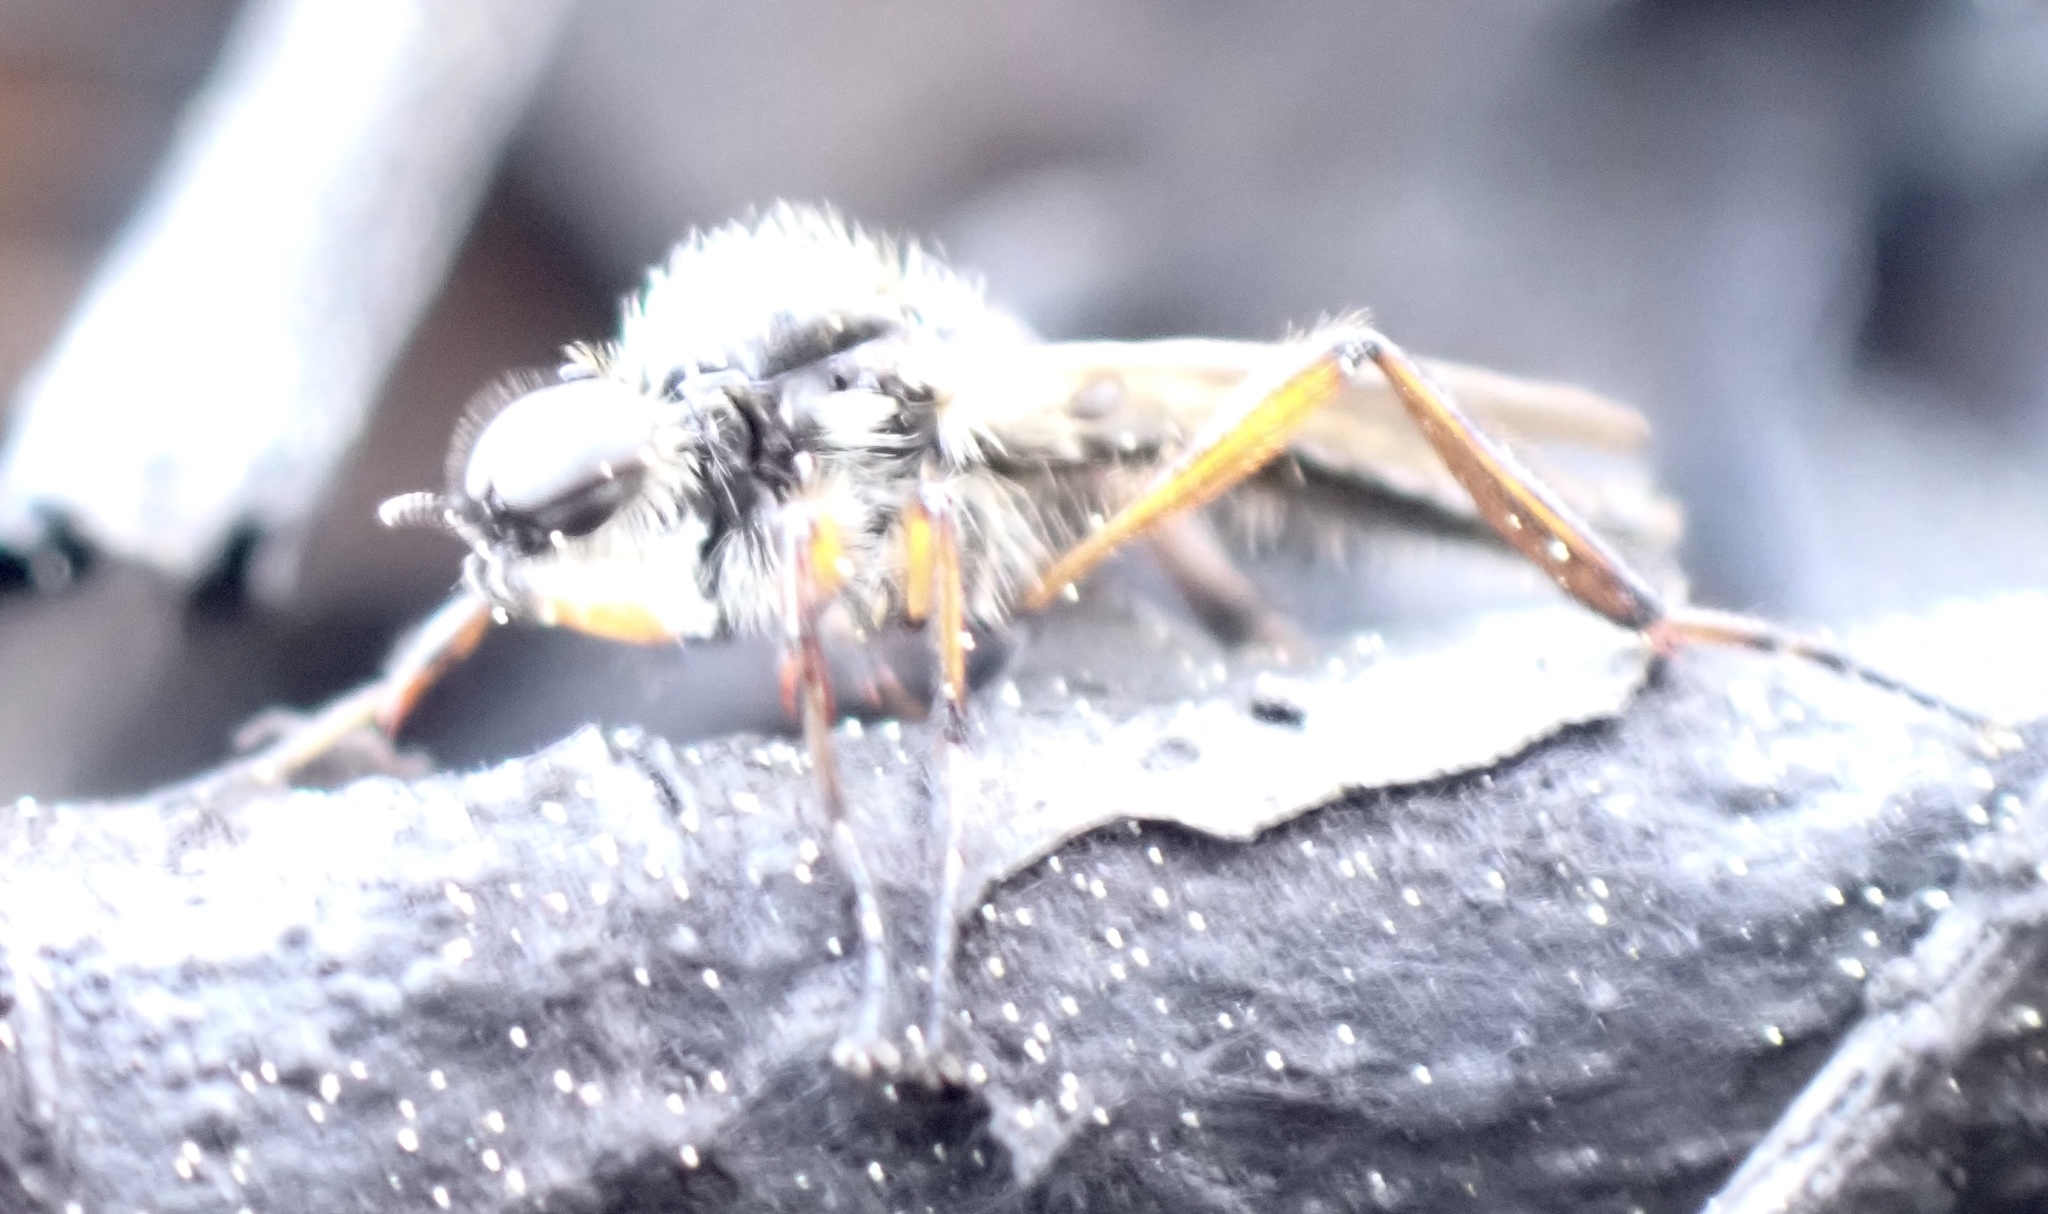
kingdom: Animalia
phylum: Arthropoda
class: Insecta
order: Diptera
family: Bibionidae
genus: Bibio
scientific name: Bibio articulatus
